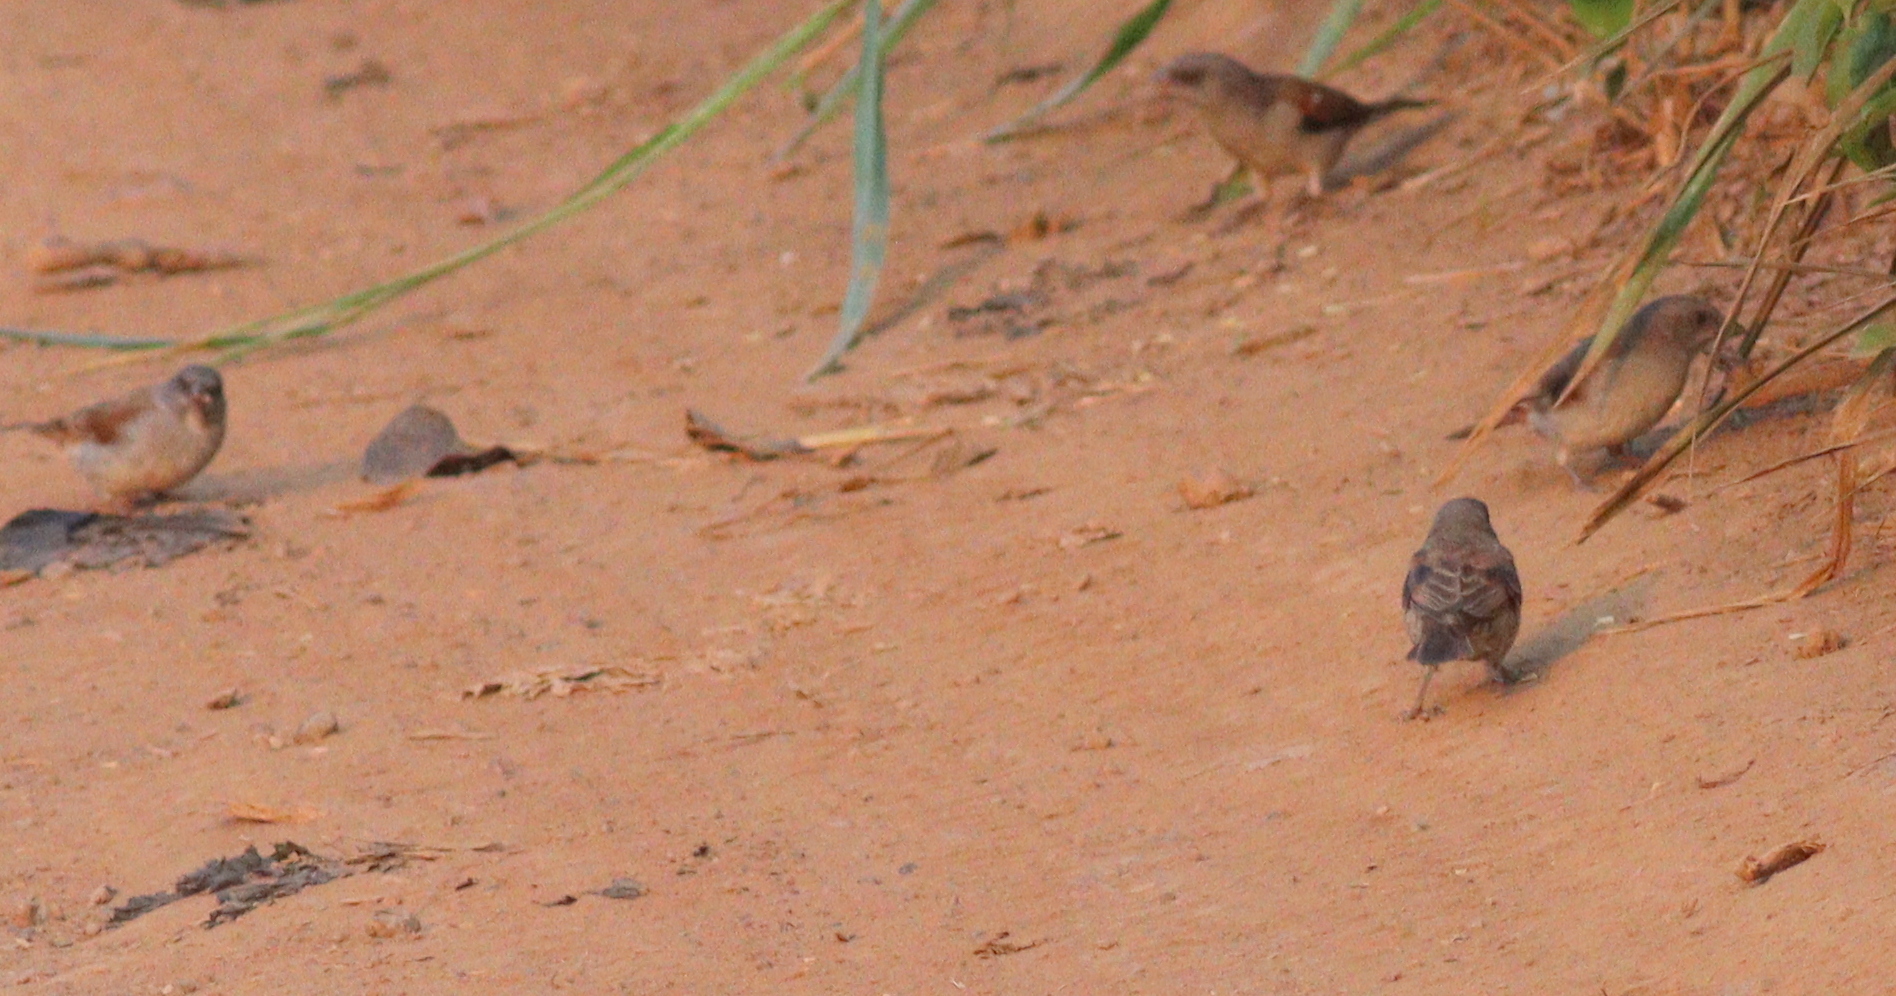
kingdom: Animalia
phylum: Chordata
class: Aves
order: Passeriformes
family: Passeridae
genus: Passer
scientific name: Passer griseus
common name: Northern grey-headed sparrow
